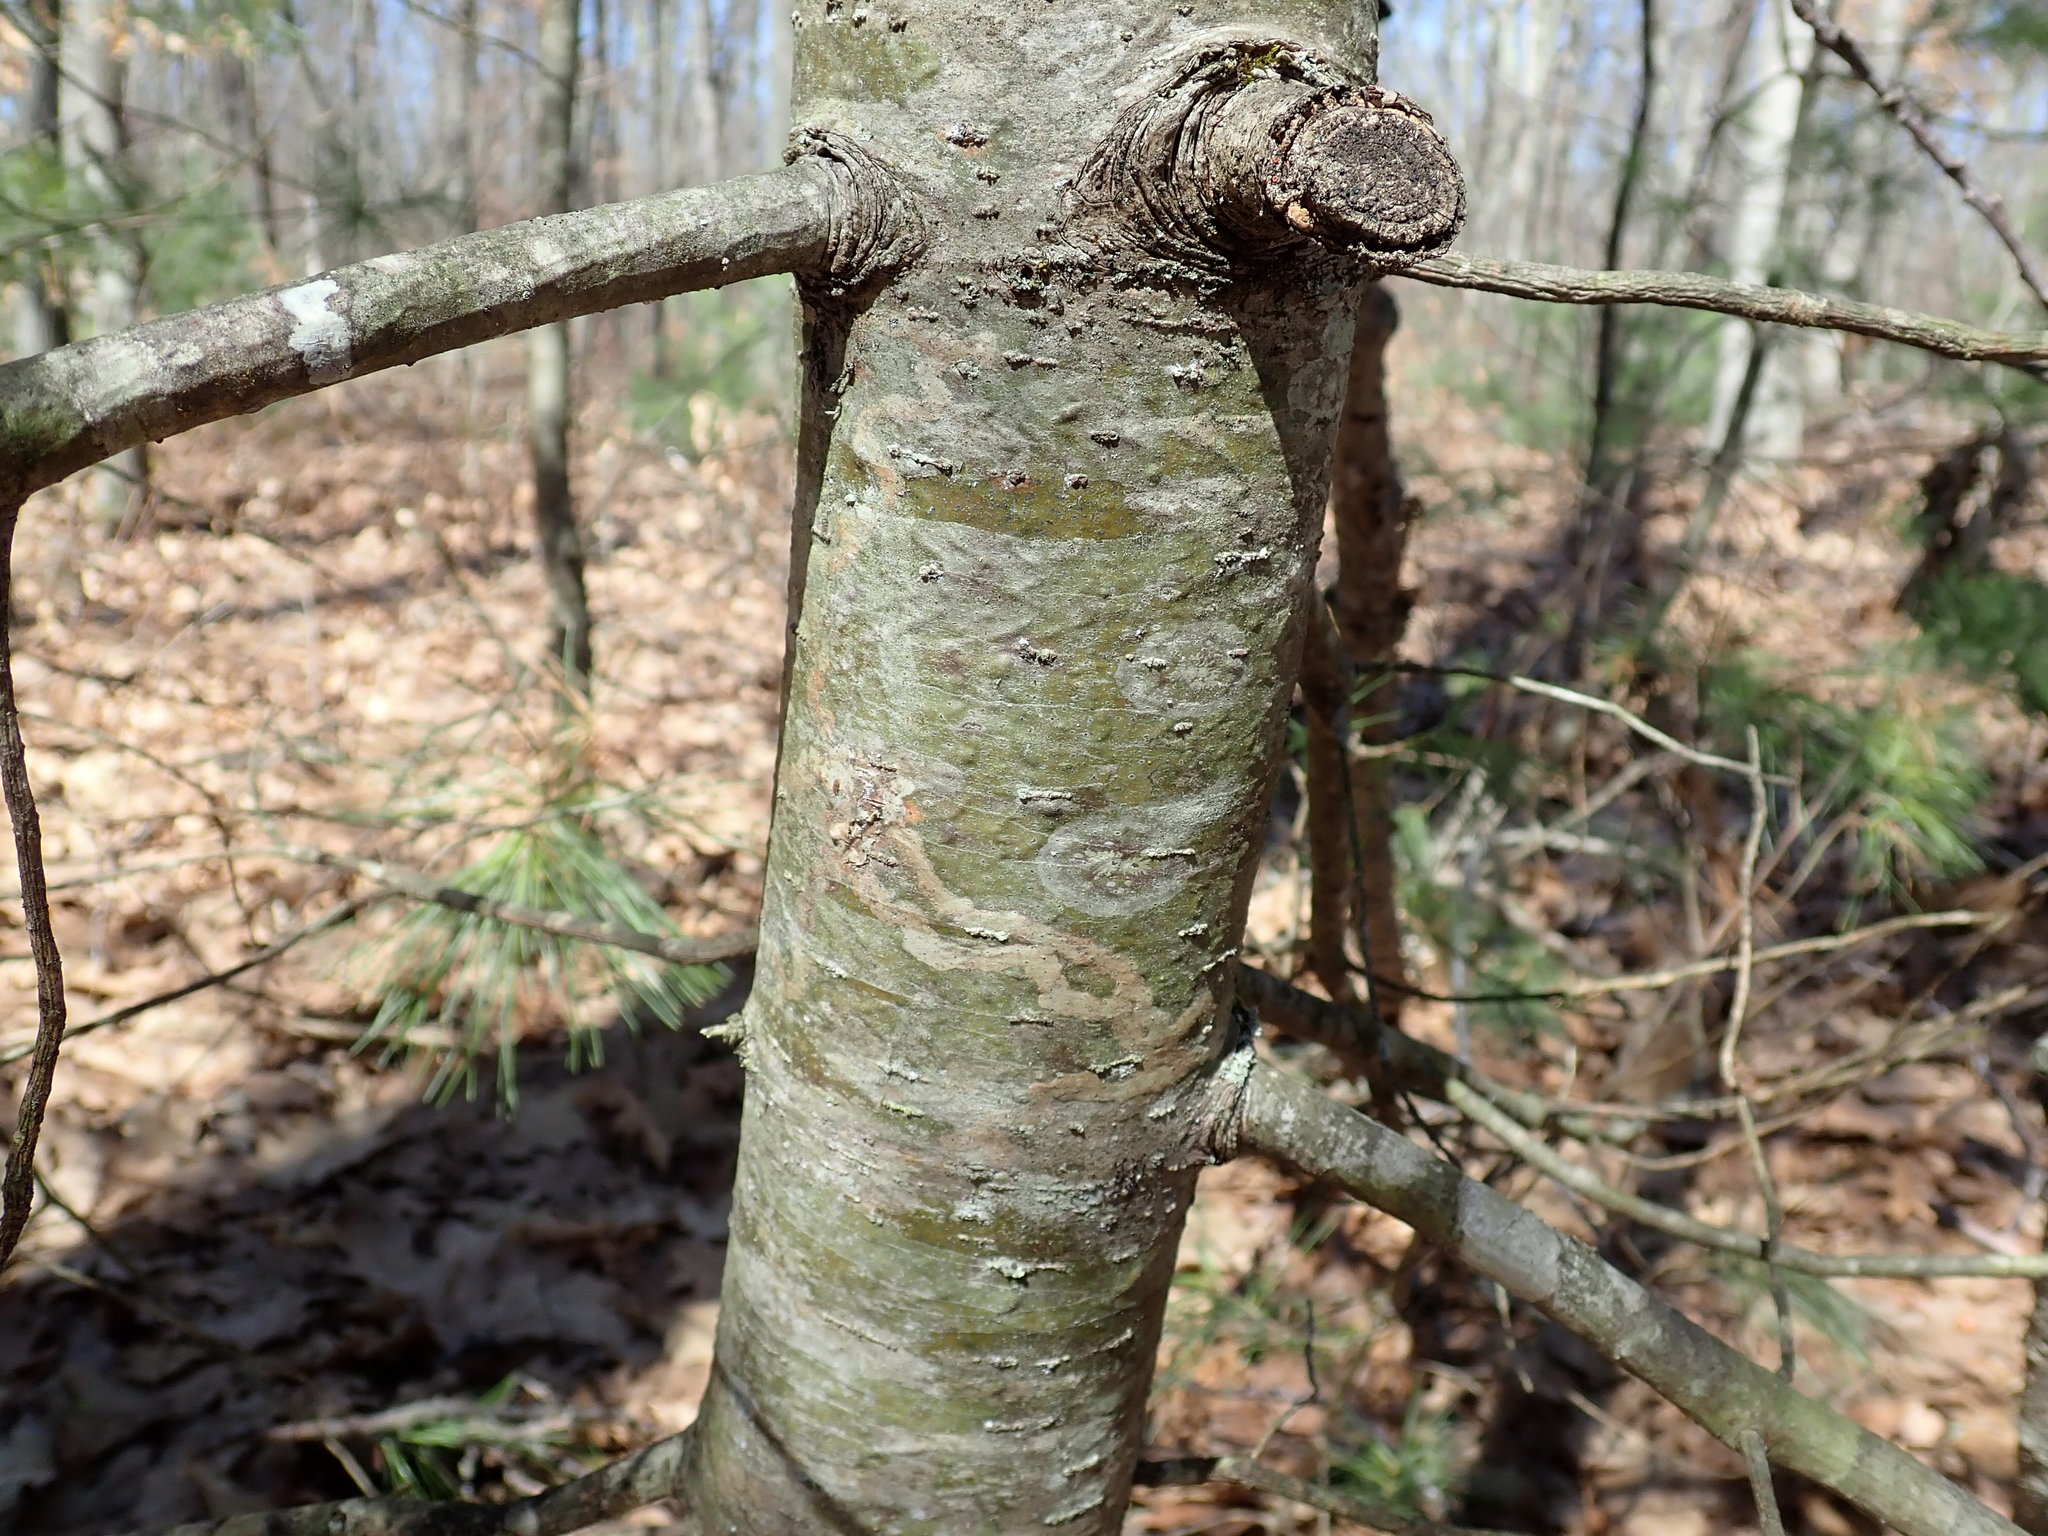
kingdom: Animalia
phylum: Arthropoda
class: Insecta
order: Lepidoptera
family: Gracillariidae
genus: Marmara
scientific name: Marmara fasciella
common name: White pine barkminer moth
